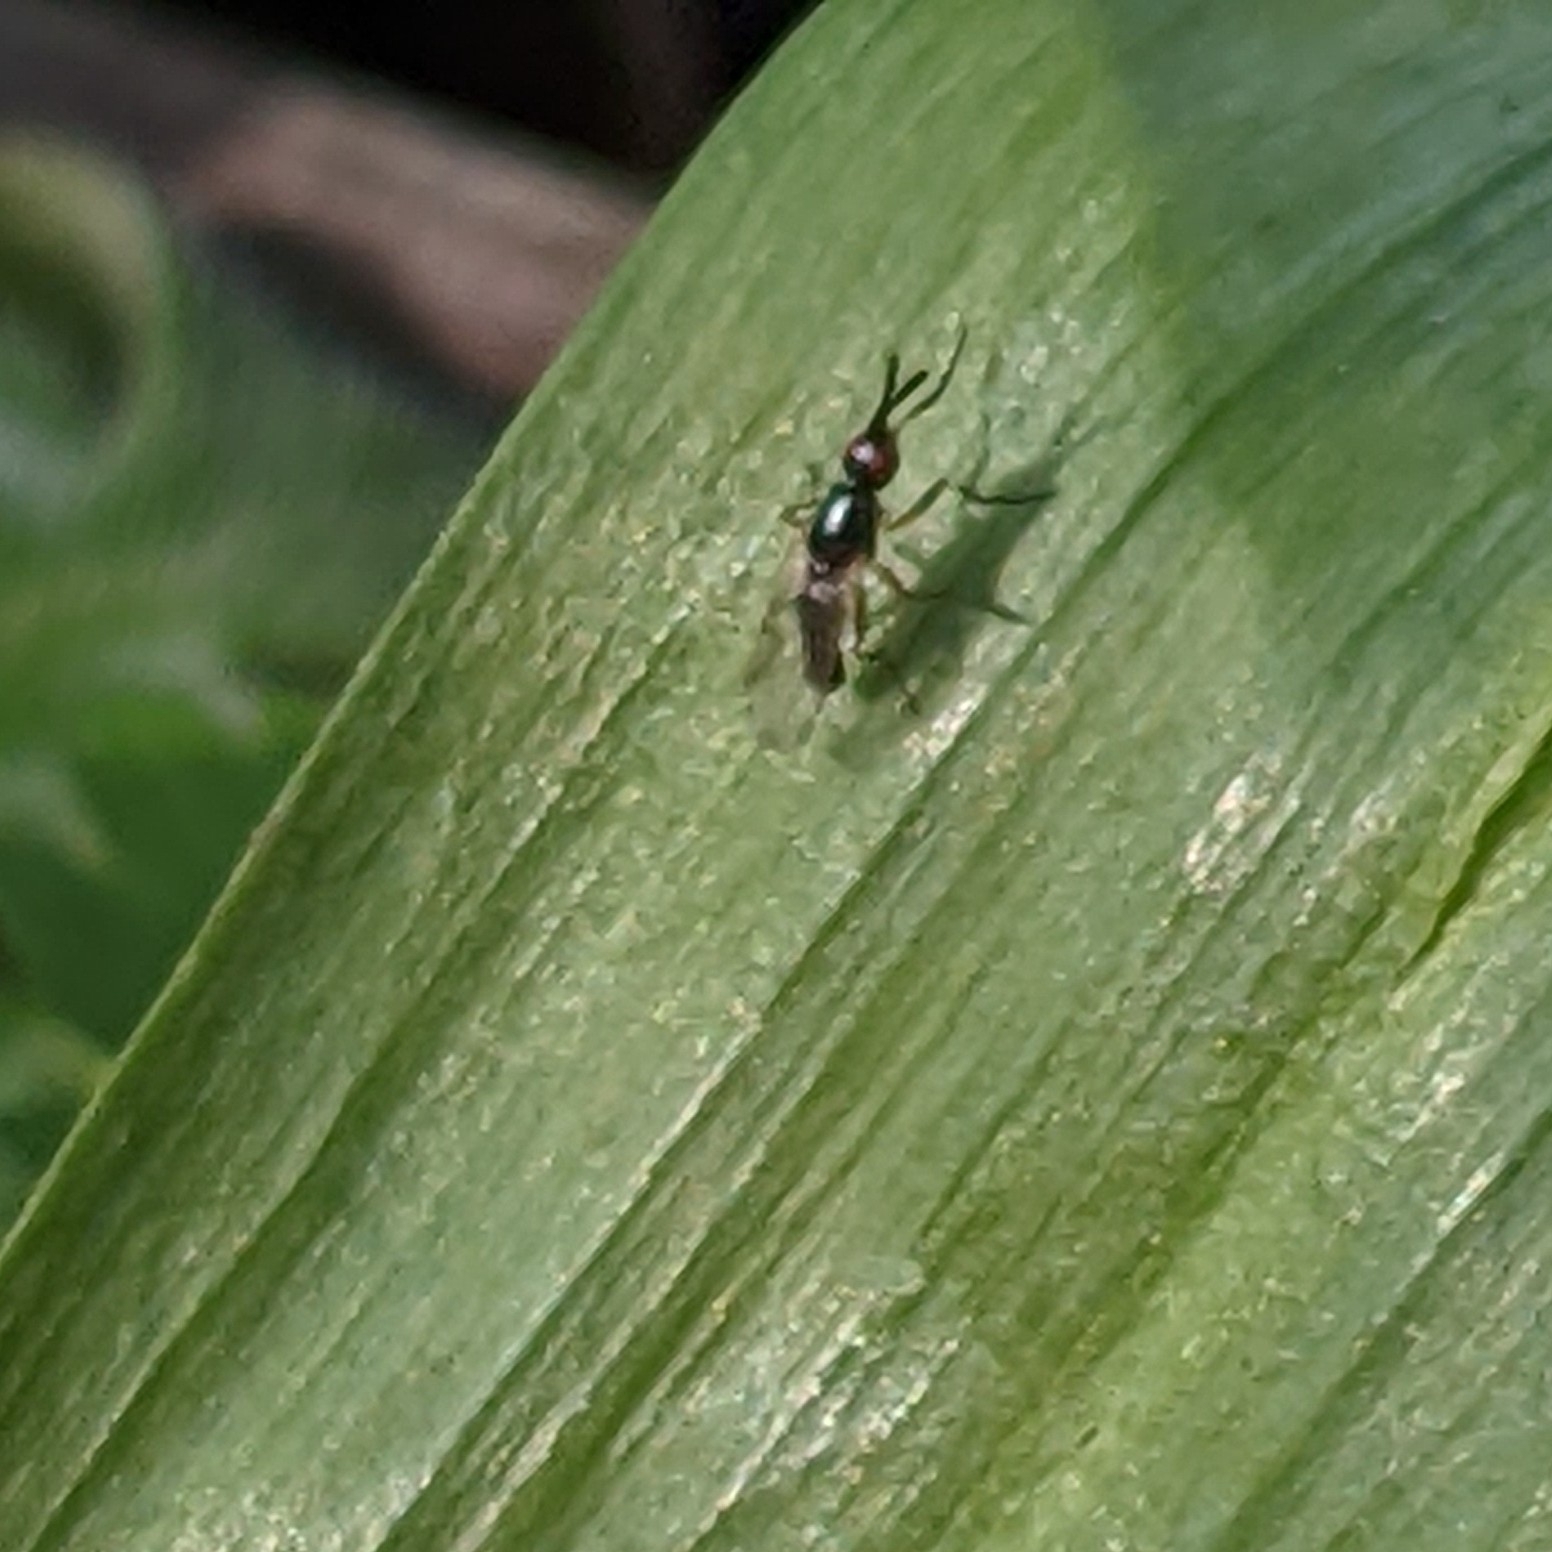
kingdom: Animalia
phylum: Arthropoda
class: Insecta
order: Diptera
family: Piophilidae
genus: Prochyliza
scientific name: Prochyliza xanthostoma
